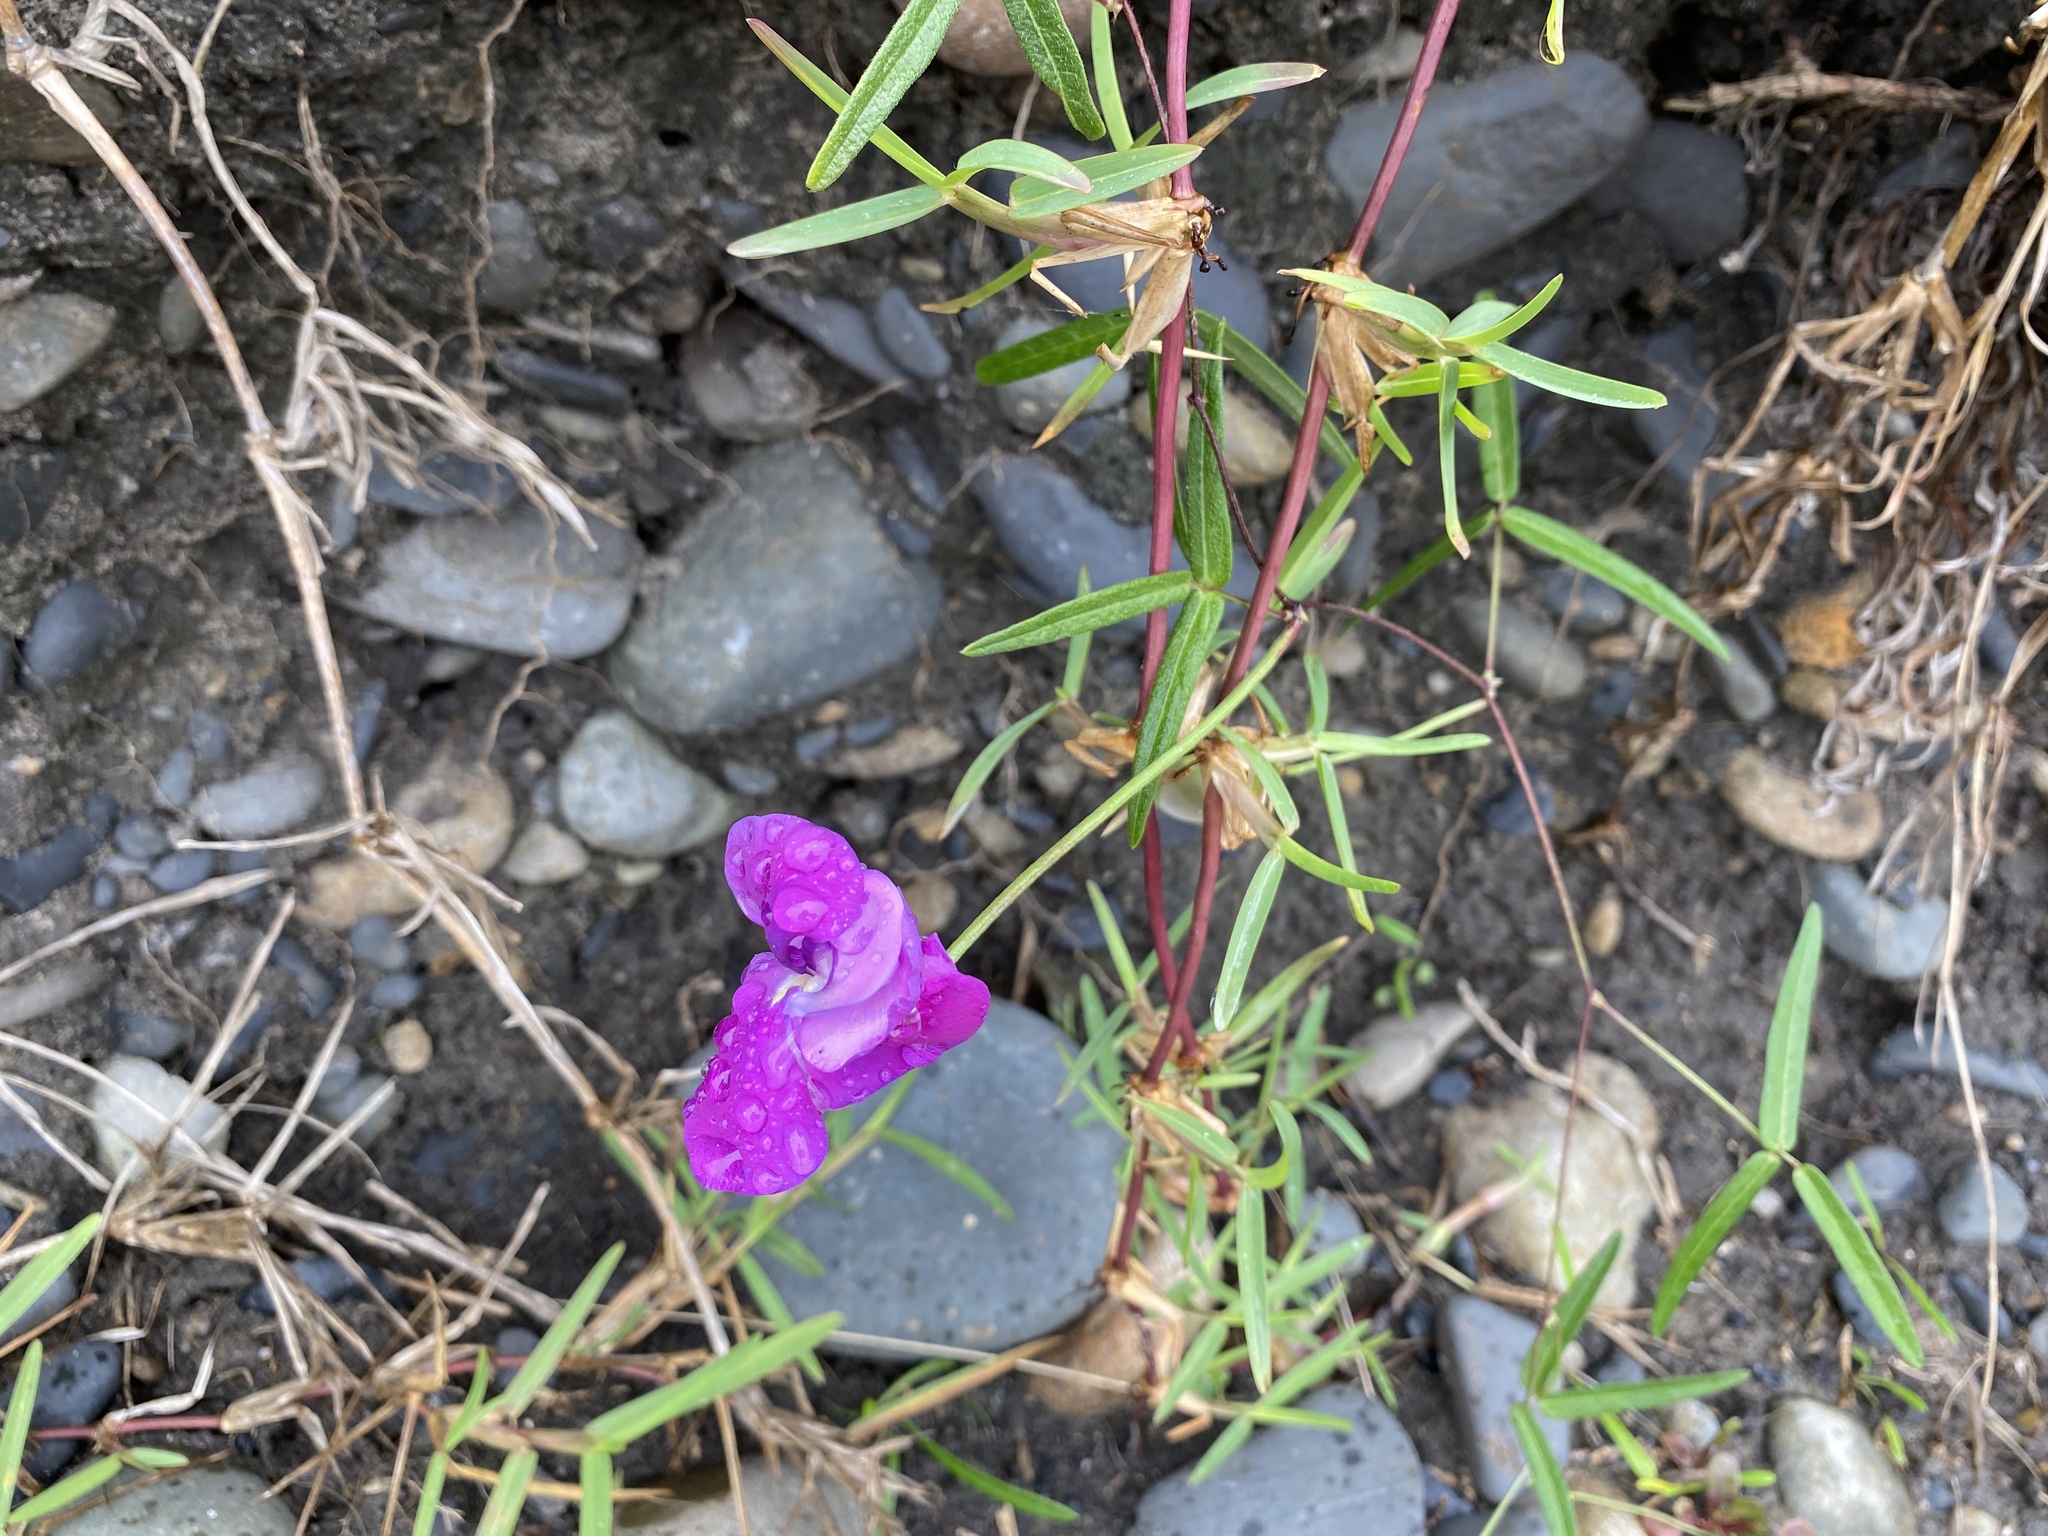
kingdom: Plantae
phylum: Tracheophyta
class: Magnoliopsida
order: Fabales
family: Fabaceae
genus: Vigna
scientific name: Vigna vexillata
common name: Zombi pea
